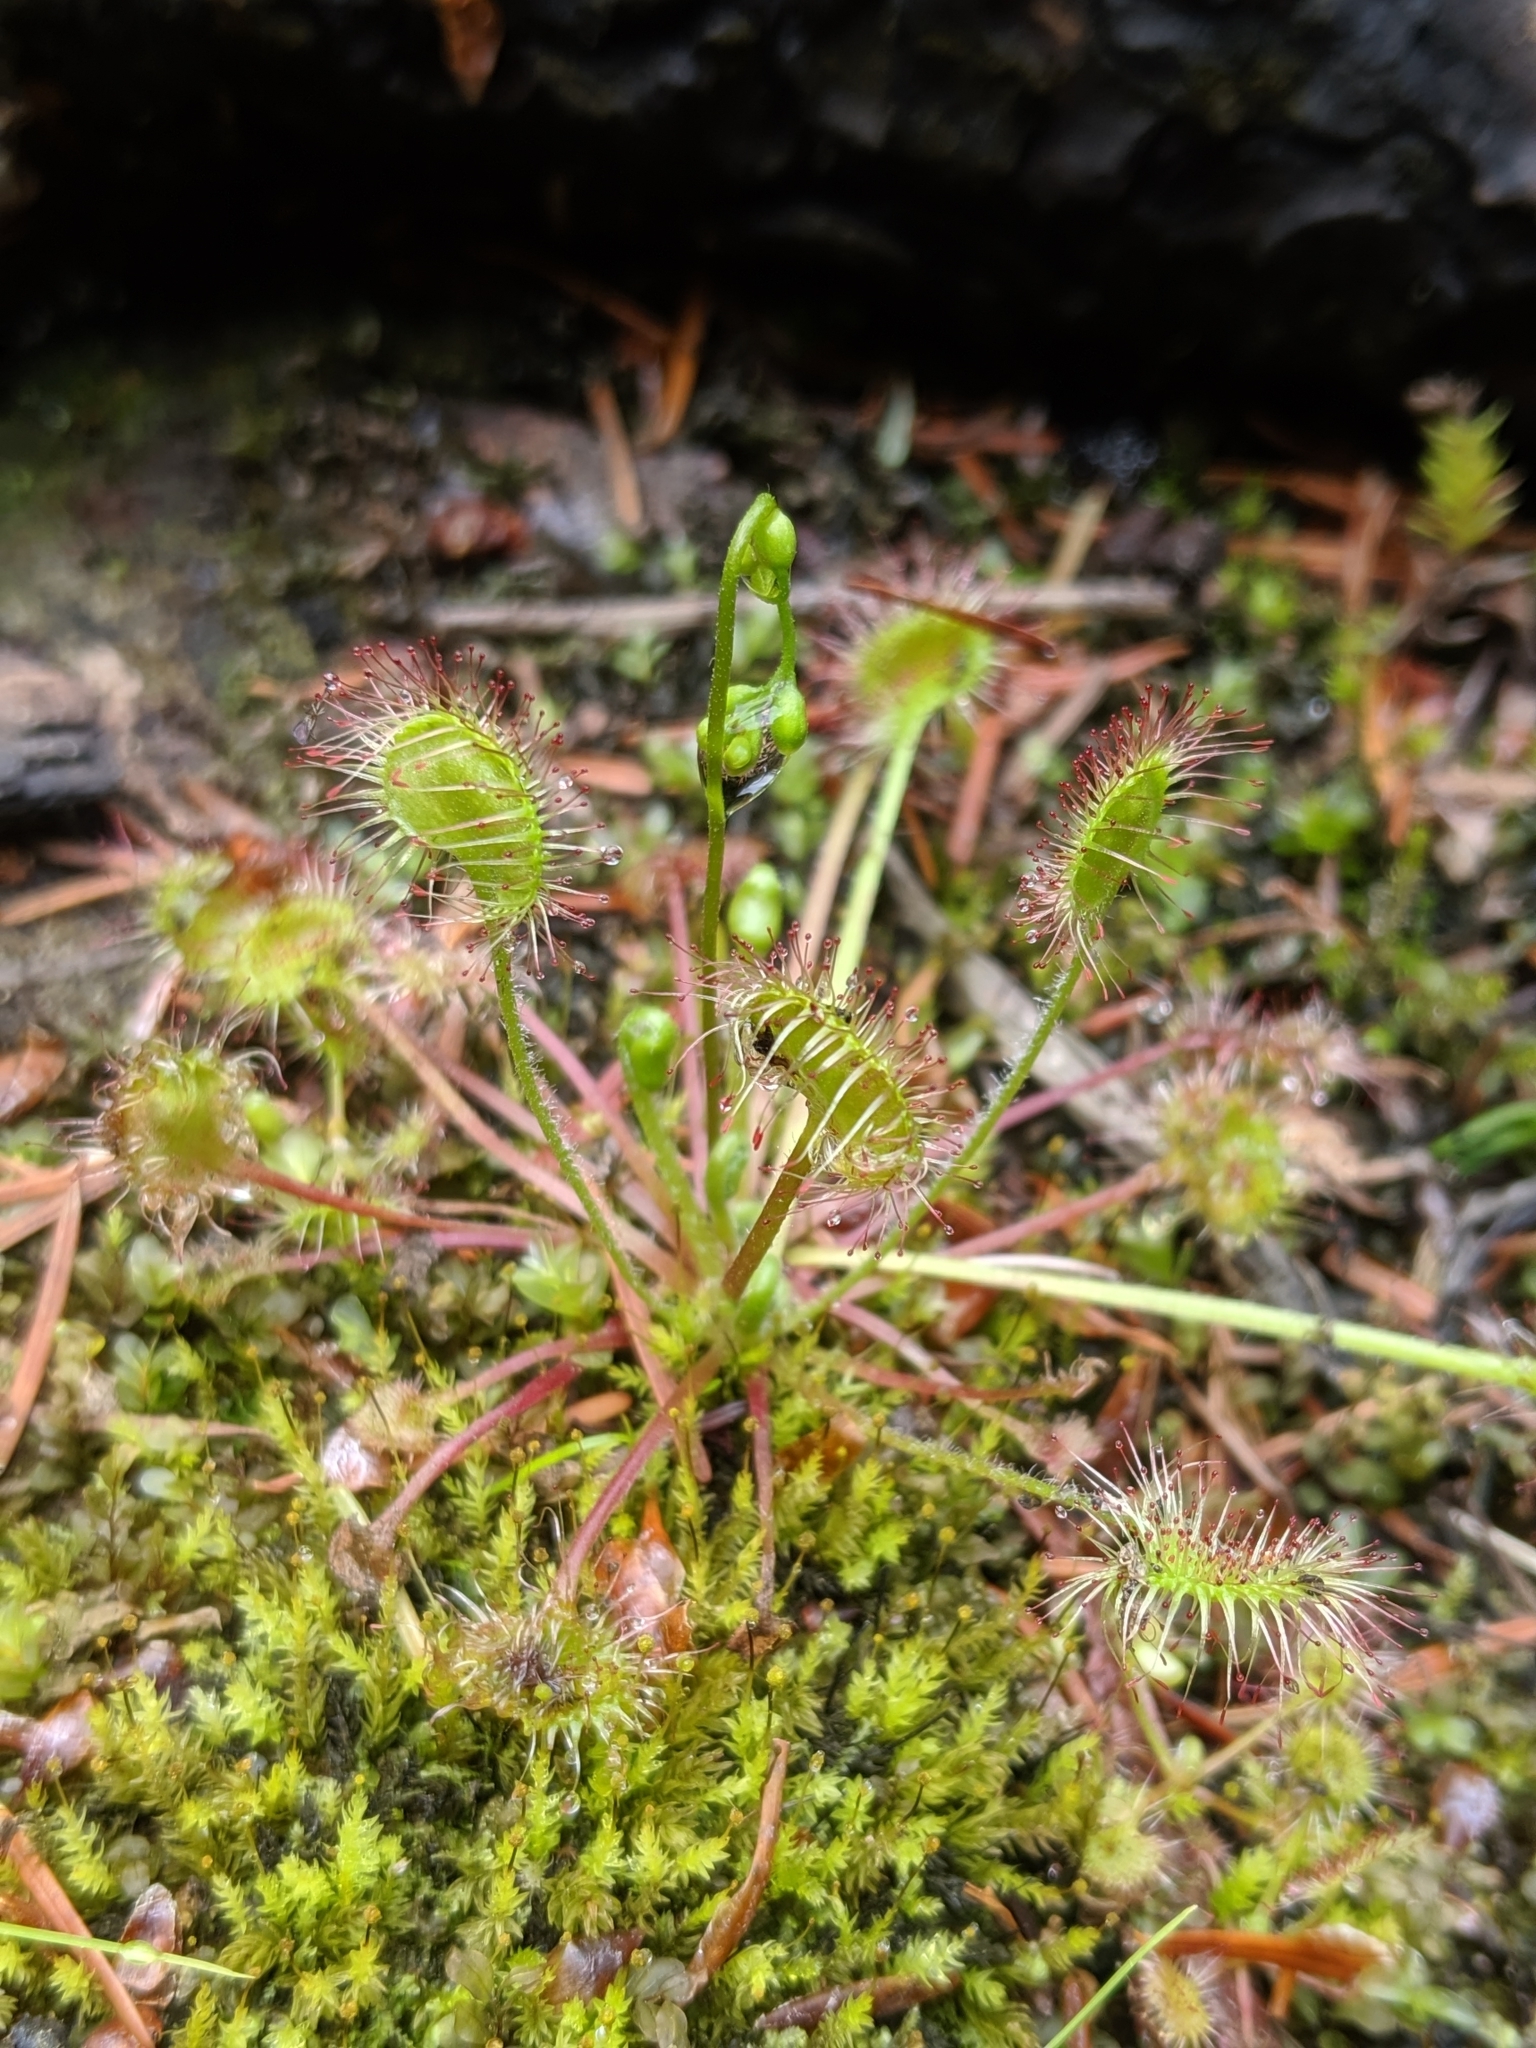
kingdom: Plantae
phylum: Tracheophyta
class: Magnoliopsida
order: Caryophyllales
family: Droseraceae
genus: Drosera
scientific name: Drosera rotundifolia
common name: Round-leaved sundew
